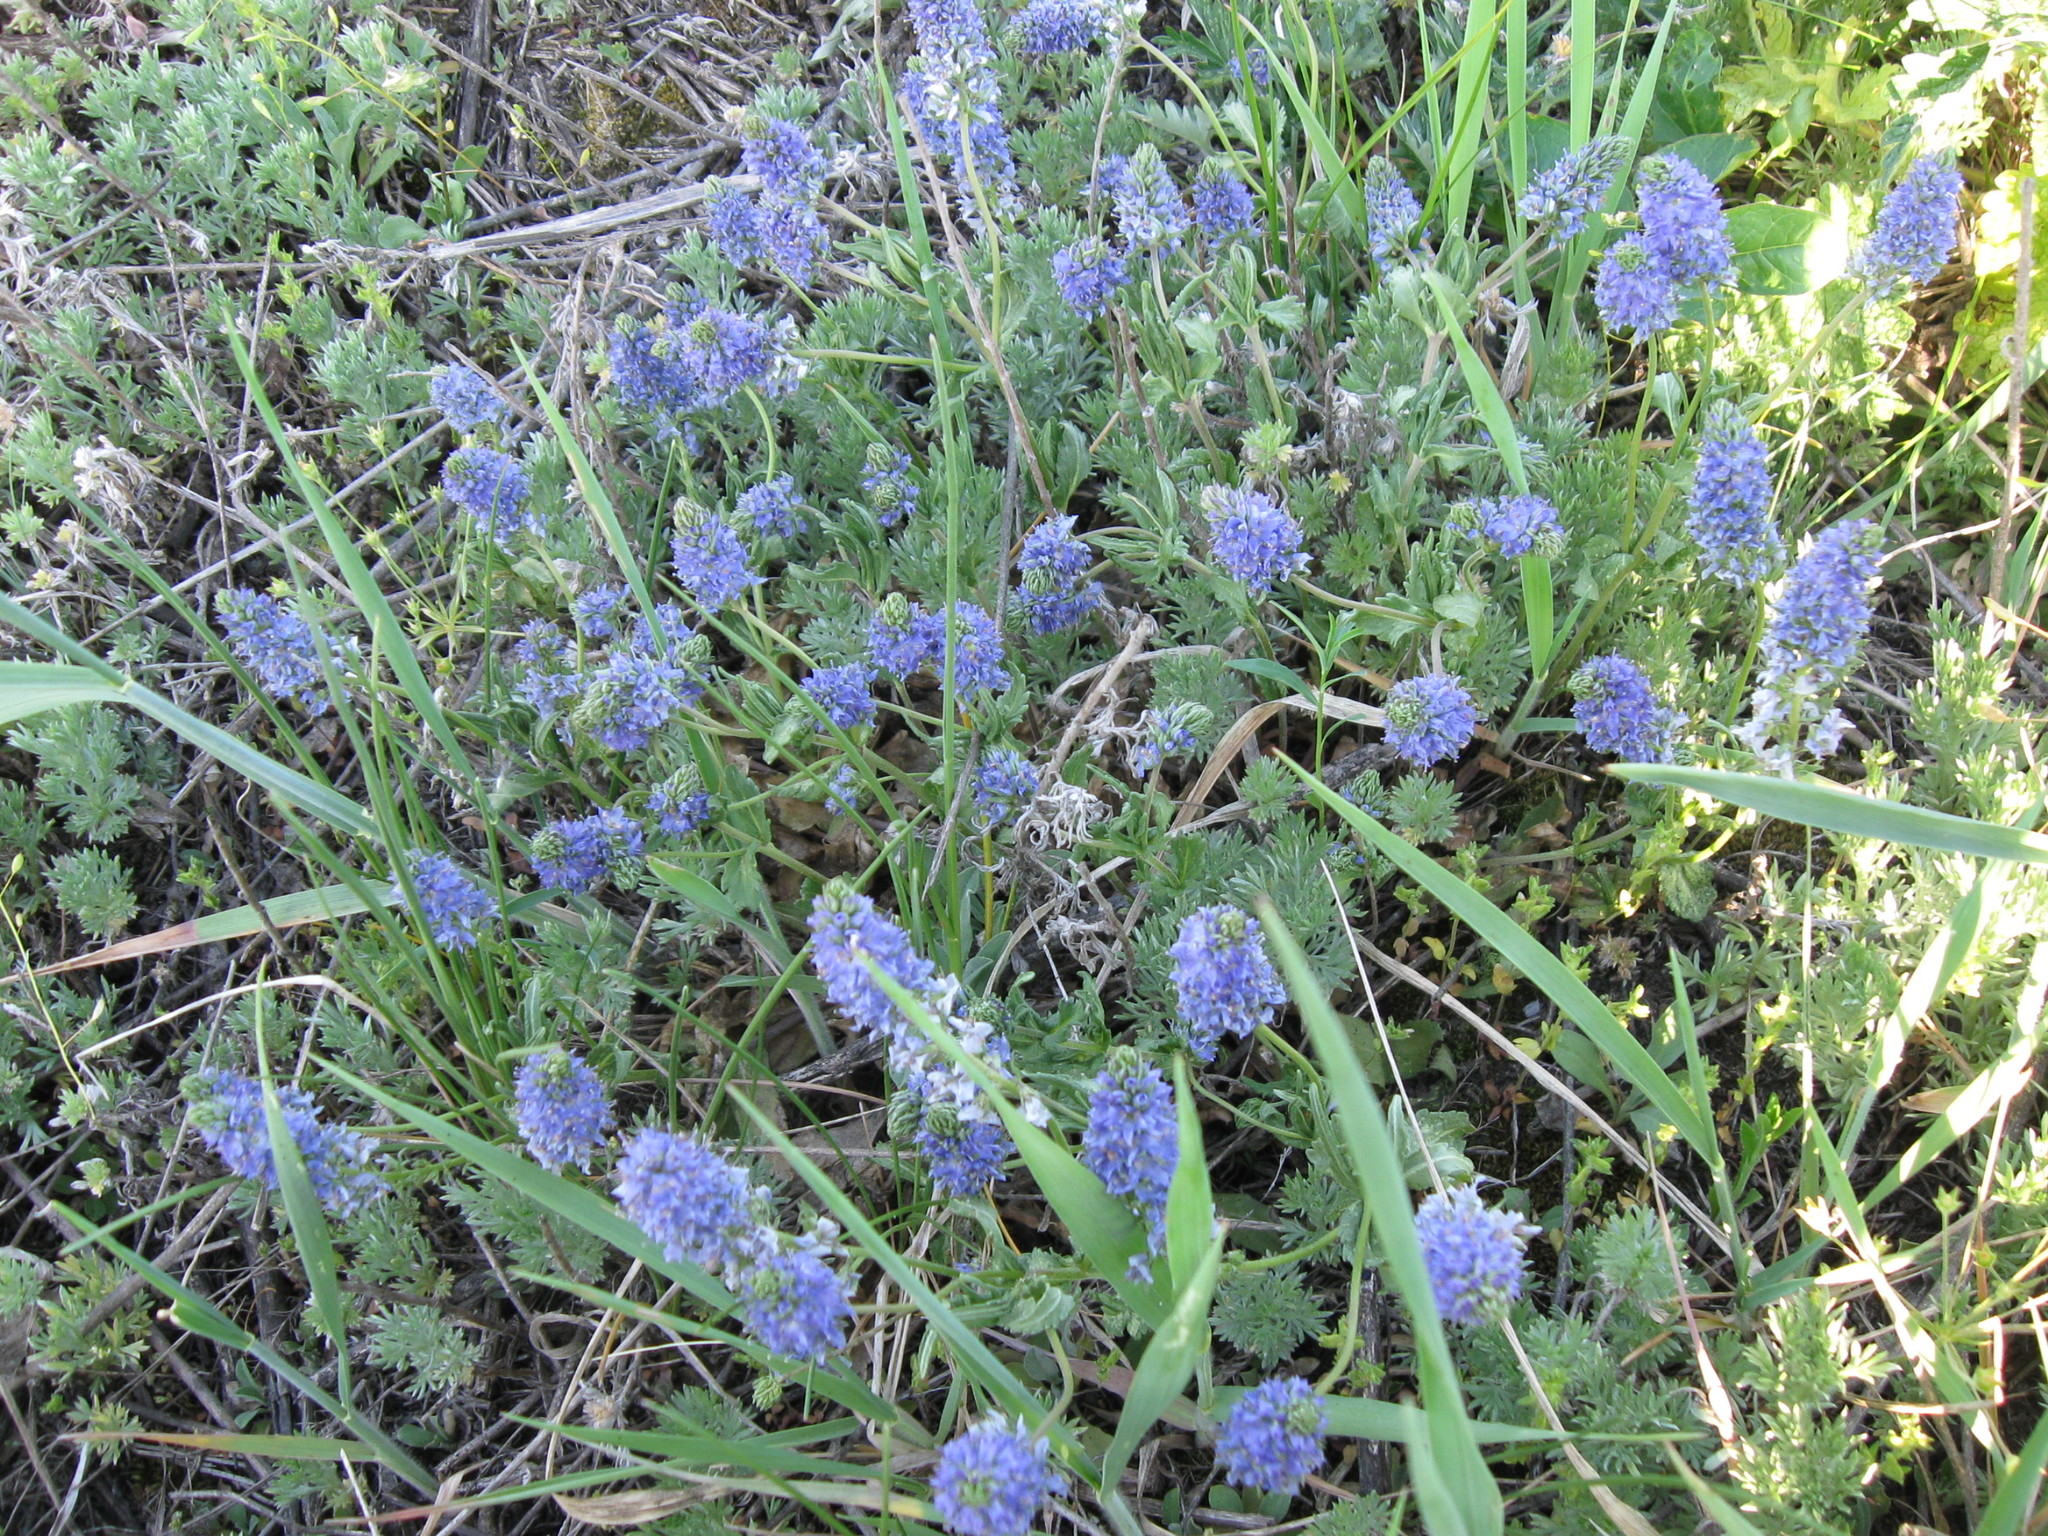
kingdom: Plantae
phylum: Tracheophyta
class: Magnoliopsida
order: Lamiales
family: Plantaginaceae
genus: Veronica
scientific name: Veronica prostrata
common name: Prostrate speedwell
